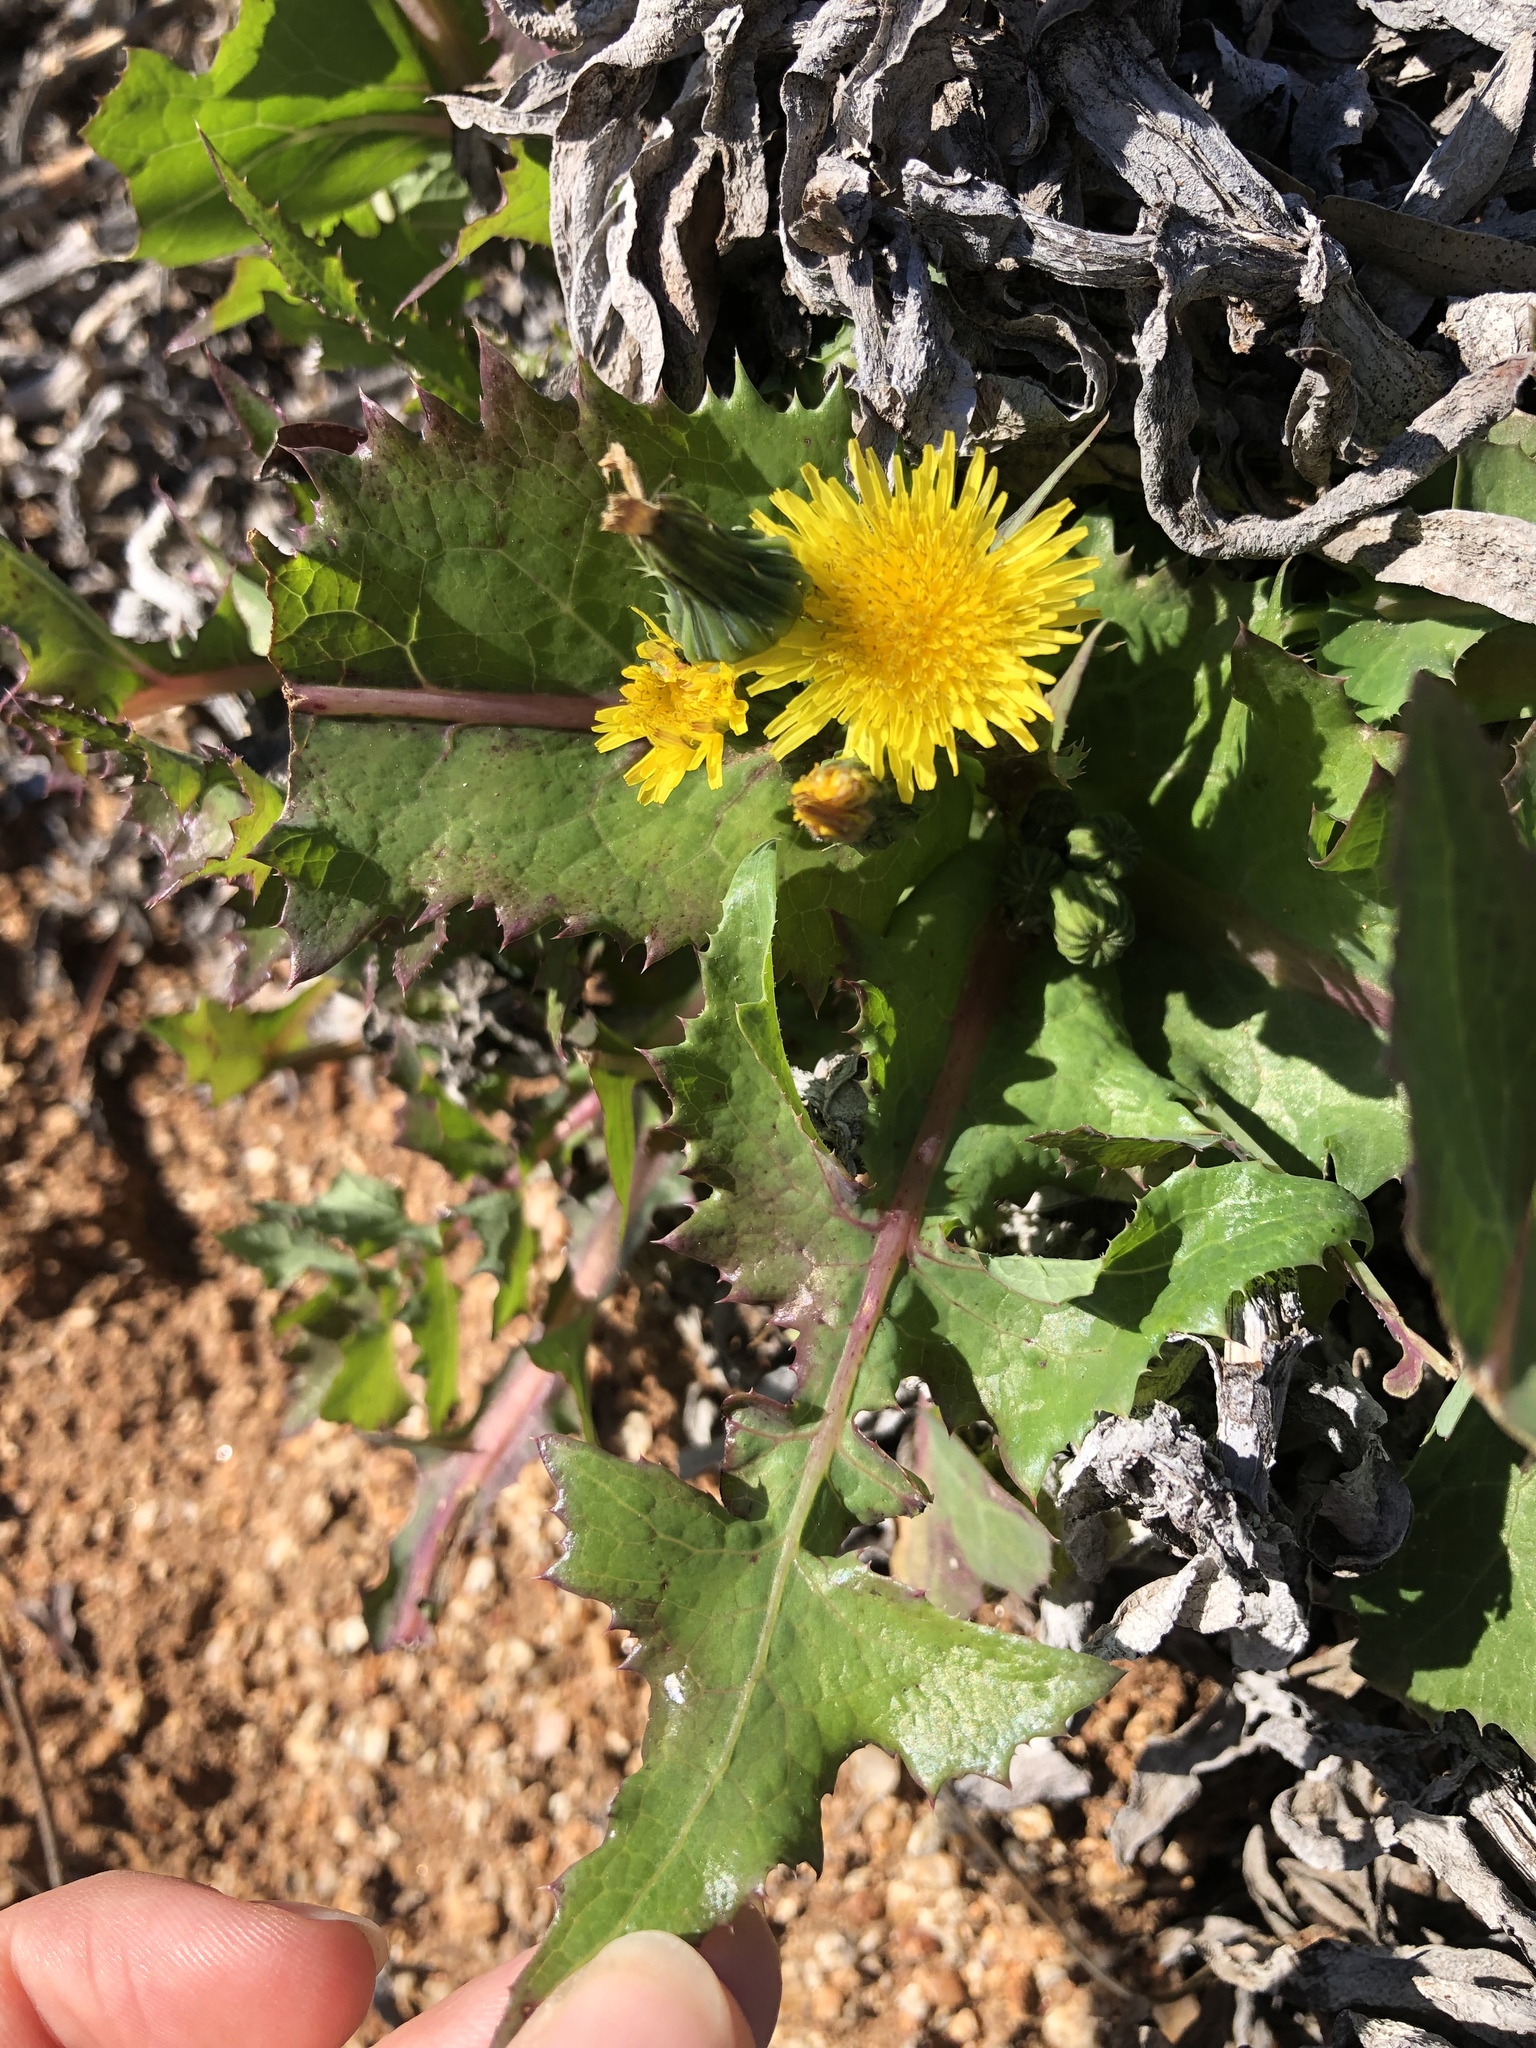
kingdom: Plantae
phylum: Tracheophyta
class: Magnoliopsida
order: Asterales
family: Asteraceae
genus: Sonchus
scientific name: Sonchus oleraceus
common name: Common sowthistle
